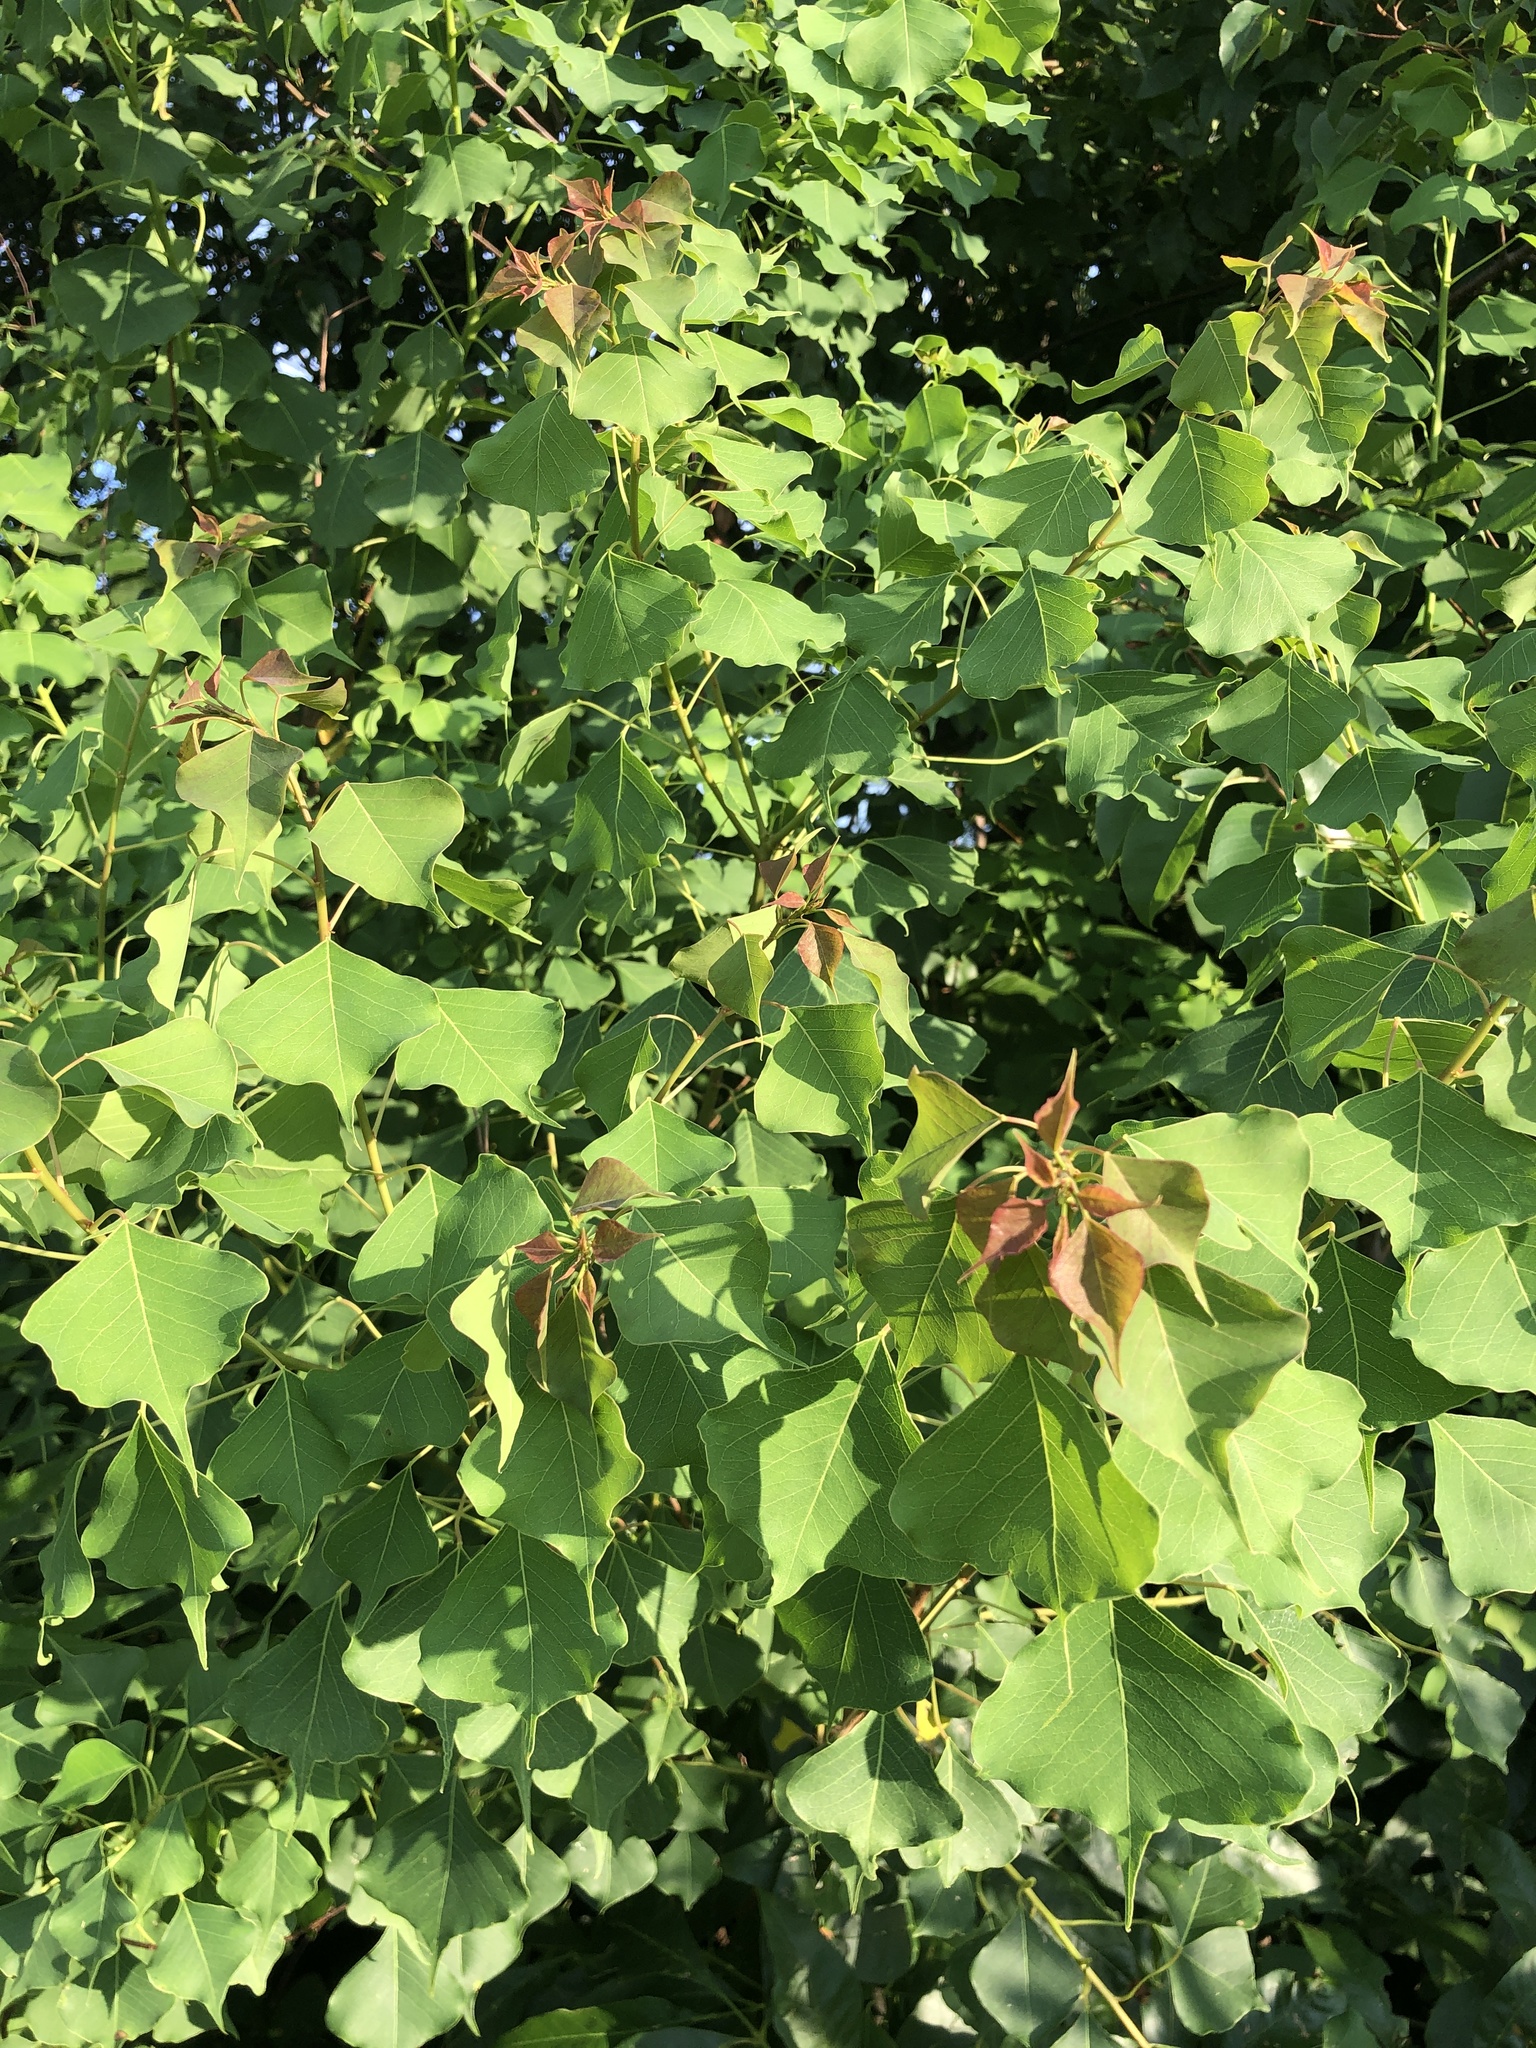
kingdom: Plantae
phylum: Tracheophyta
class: Magnoliopsida
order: Malpighiales
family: Euphorbiaceae
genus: Triadica
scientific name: Triadica sebifera
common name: Chinese tallow
